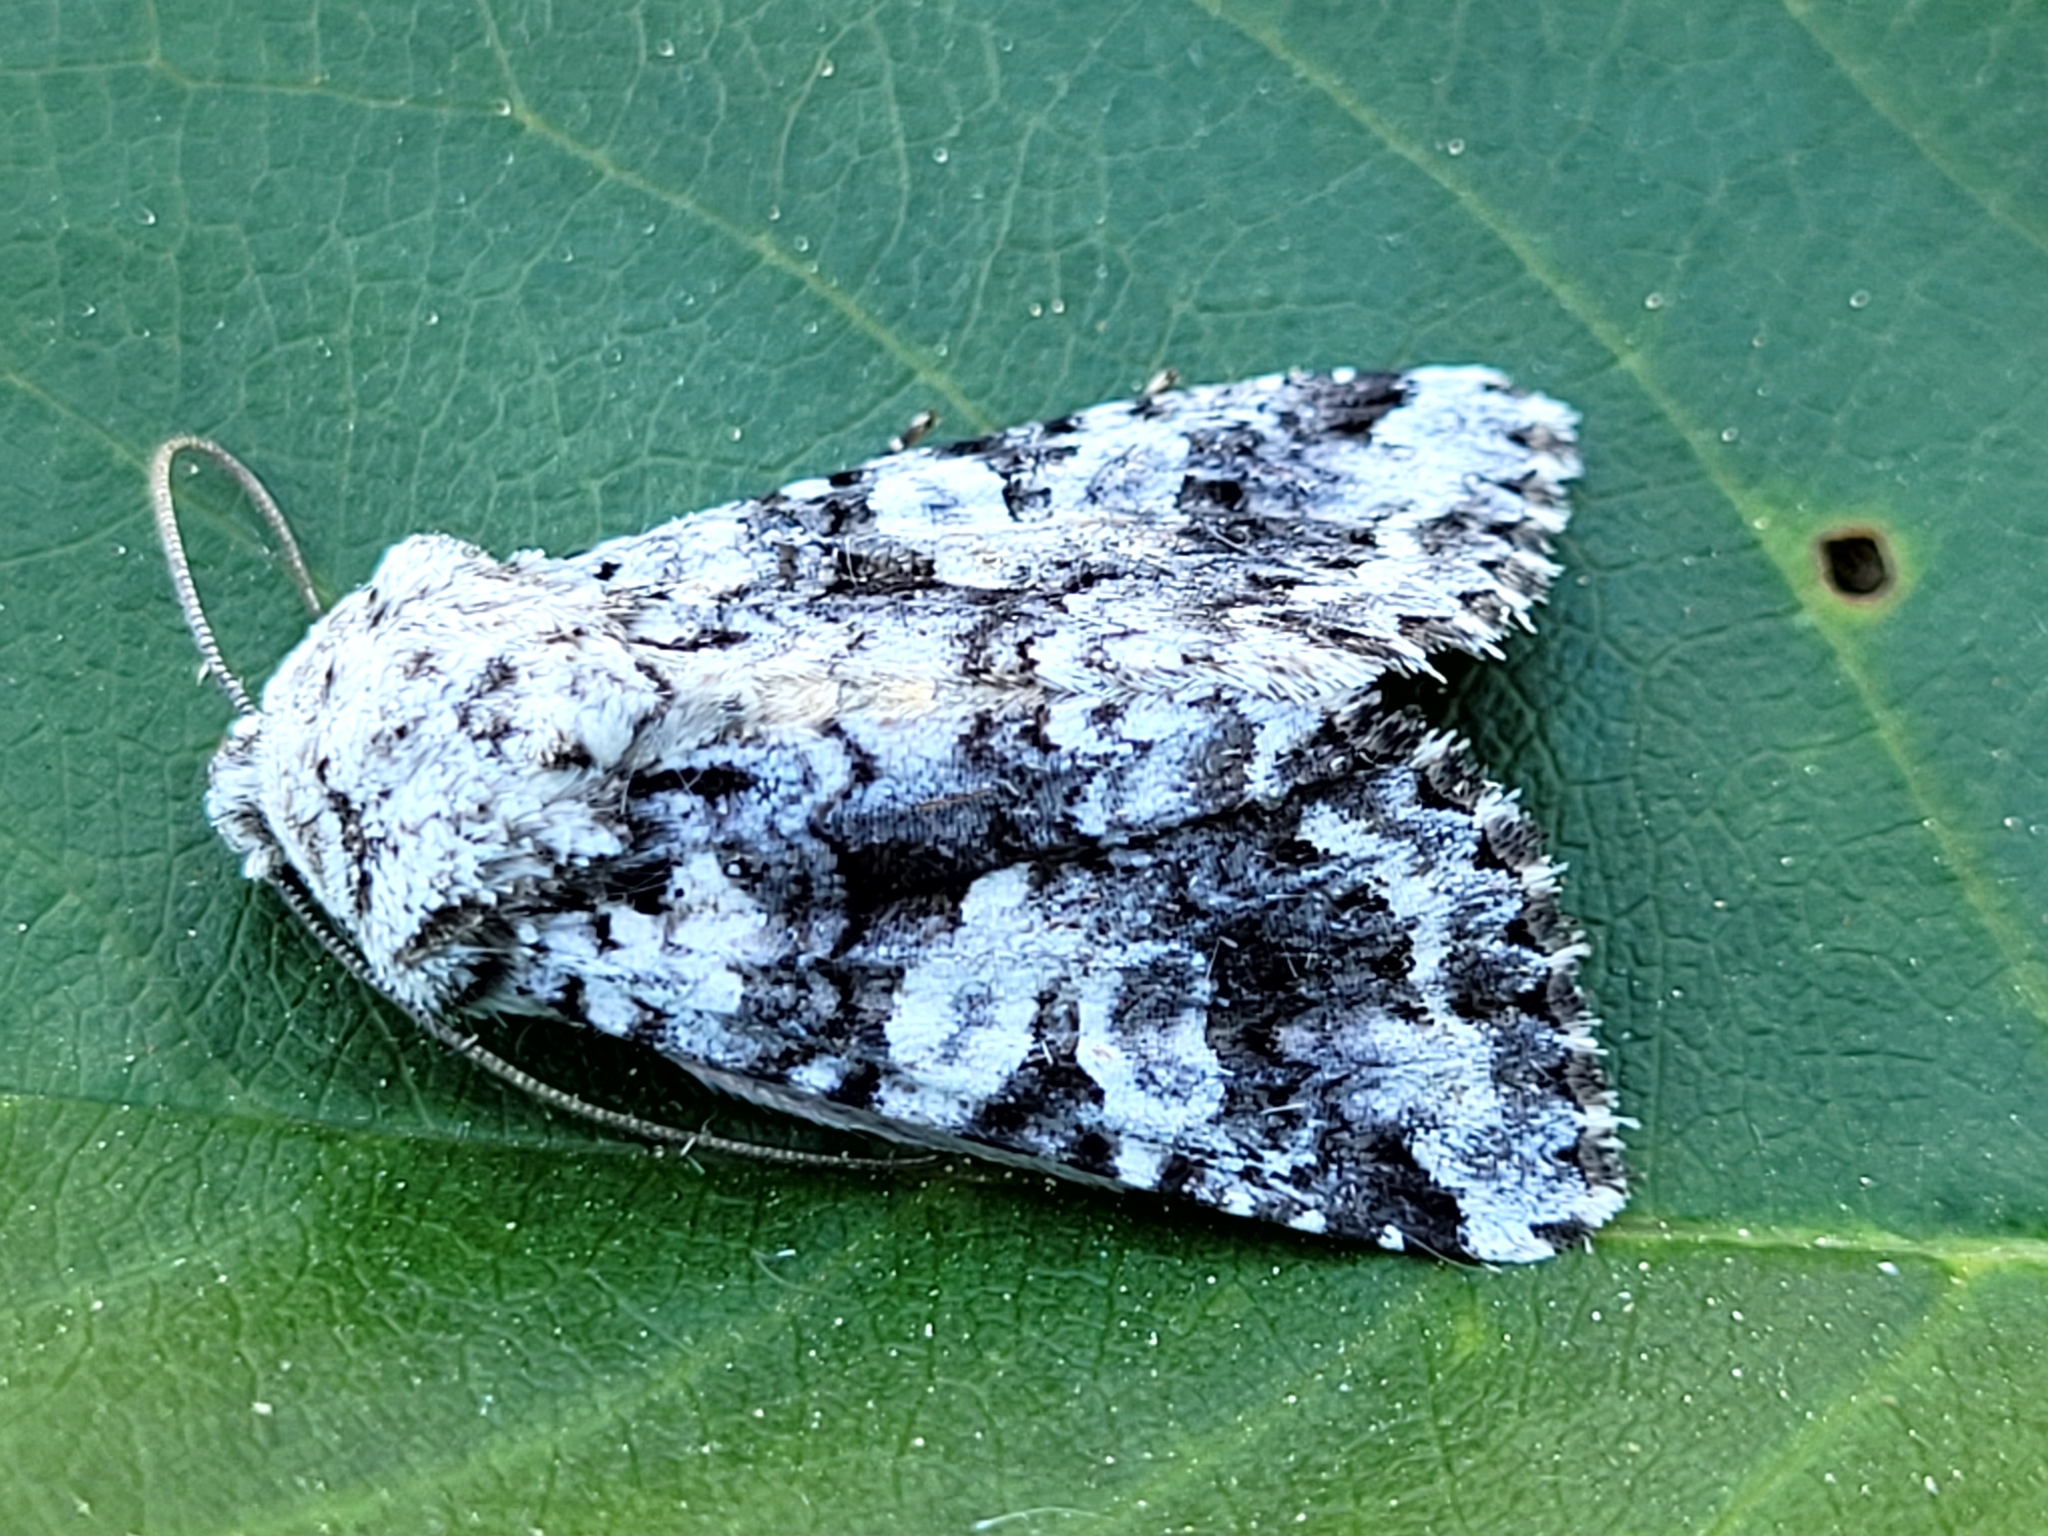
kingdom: Animalia
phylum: Arthropoda
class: Insecta
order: Lepidoptera
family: Noctuidae
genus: Hadena
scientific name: Hadena circumvadis
